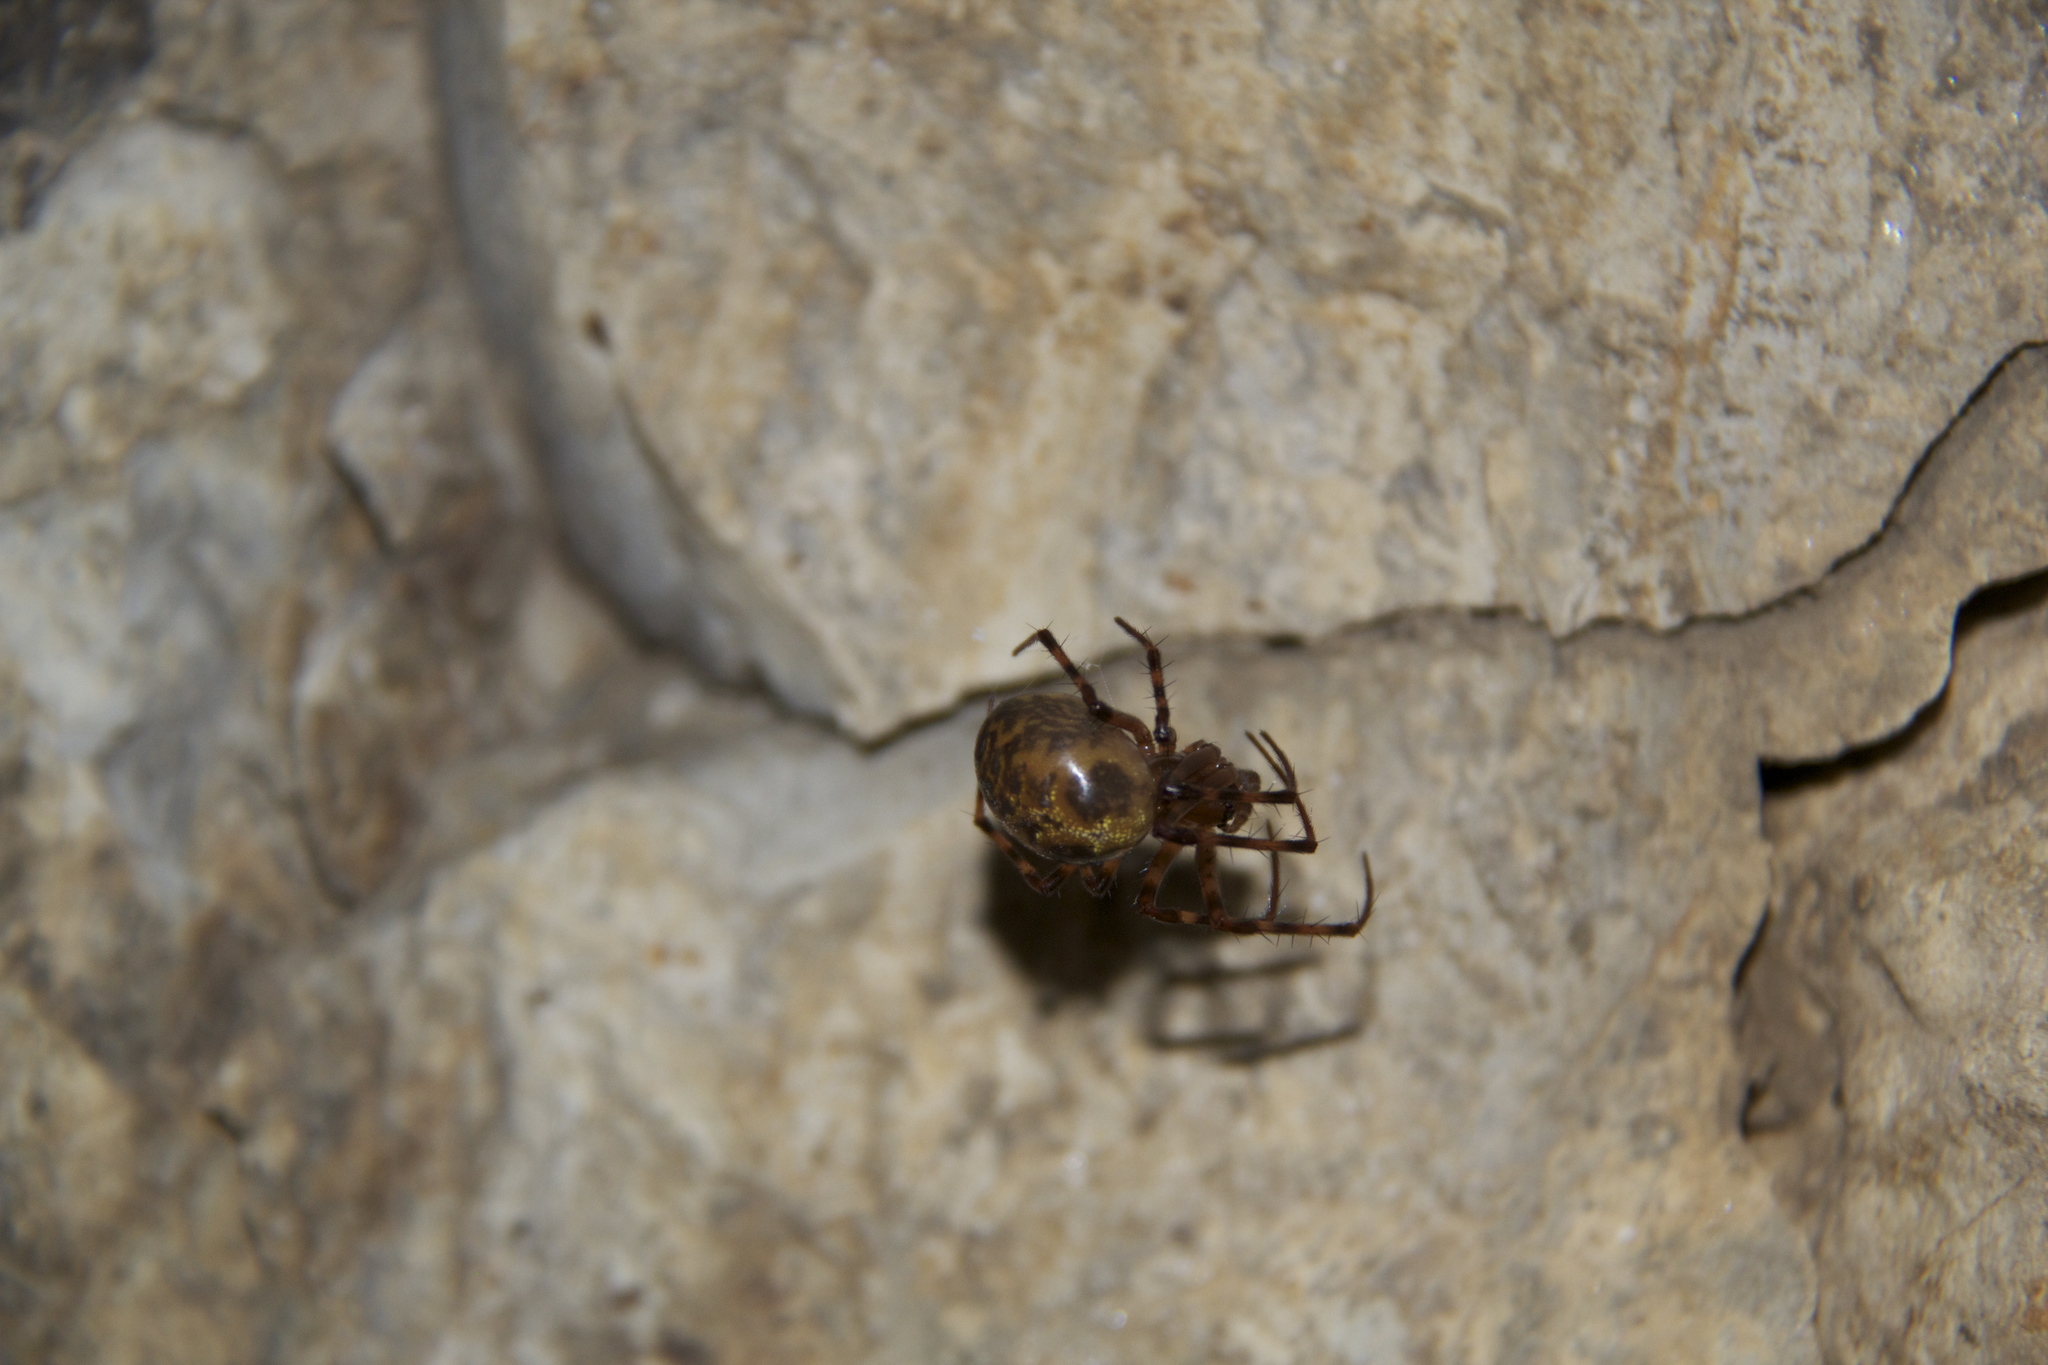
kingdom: Animalia
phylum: Arthropoda
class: Arachnida
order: Araneae
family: Tetragnathidae
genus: Meta
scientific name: Meta menardi
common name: Cave spider
